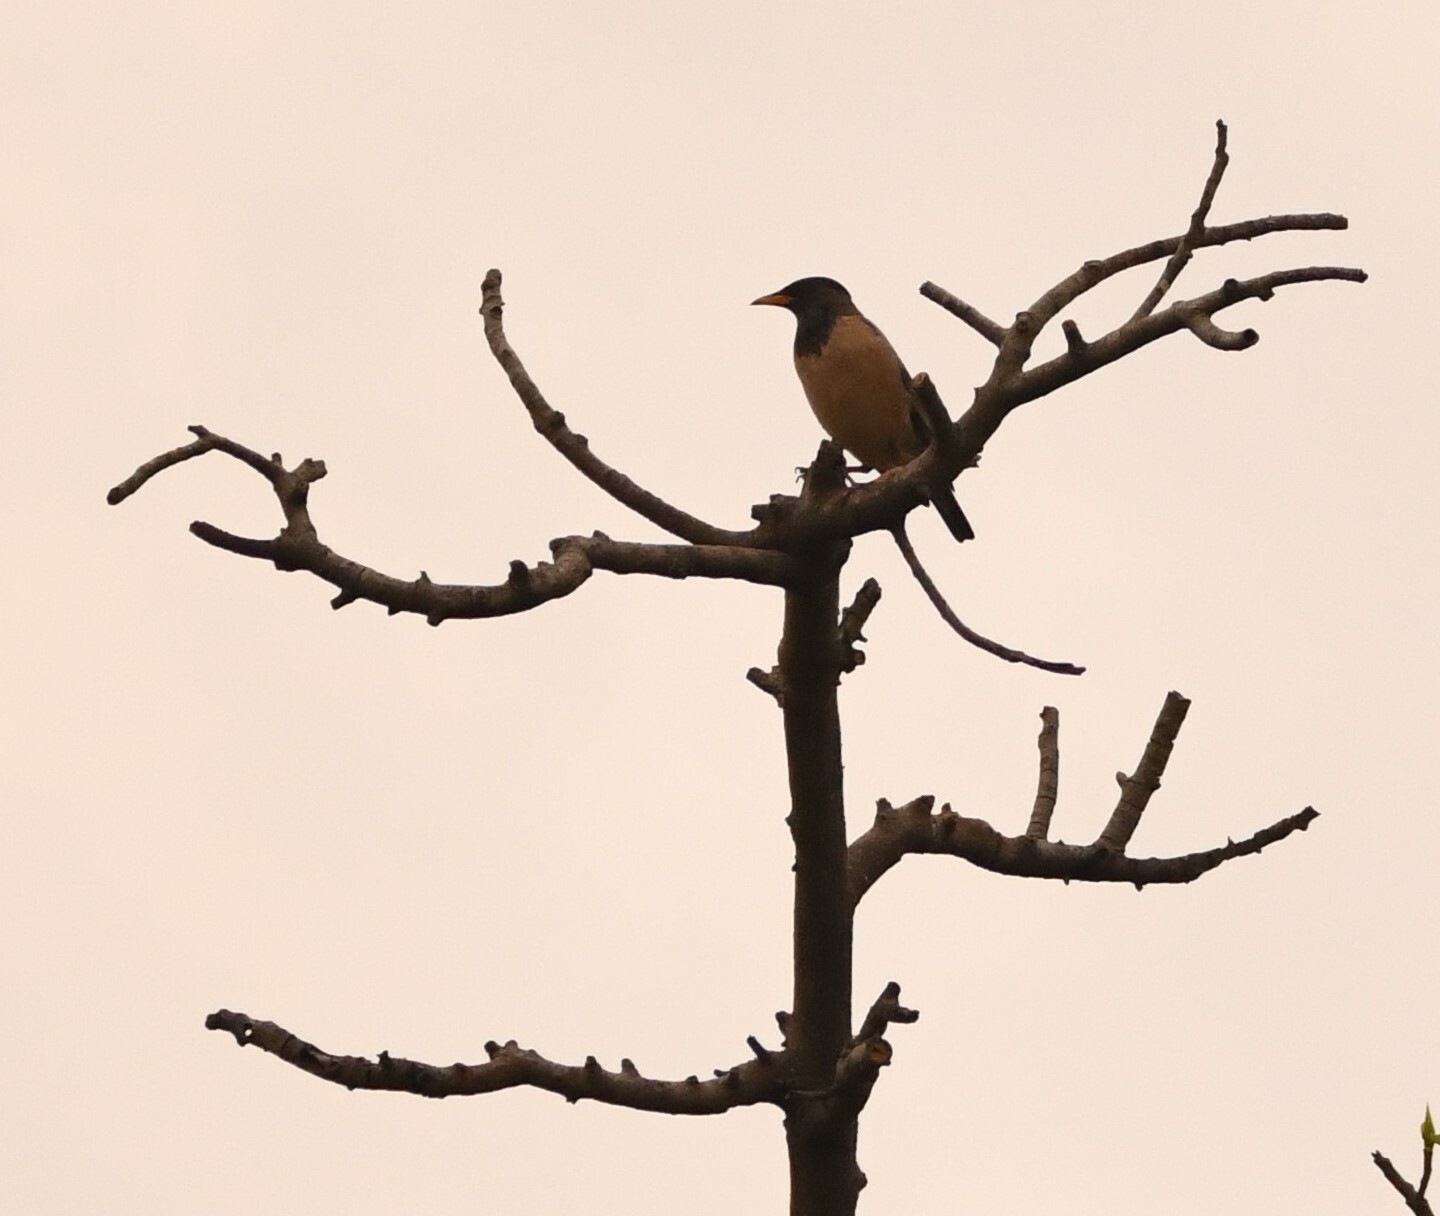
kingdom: Animalia
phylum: Chordata
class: Aves
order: Passeriformes
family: Sturnidae
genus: Pastor
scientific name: Pastor roseus
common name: Rosy starling
